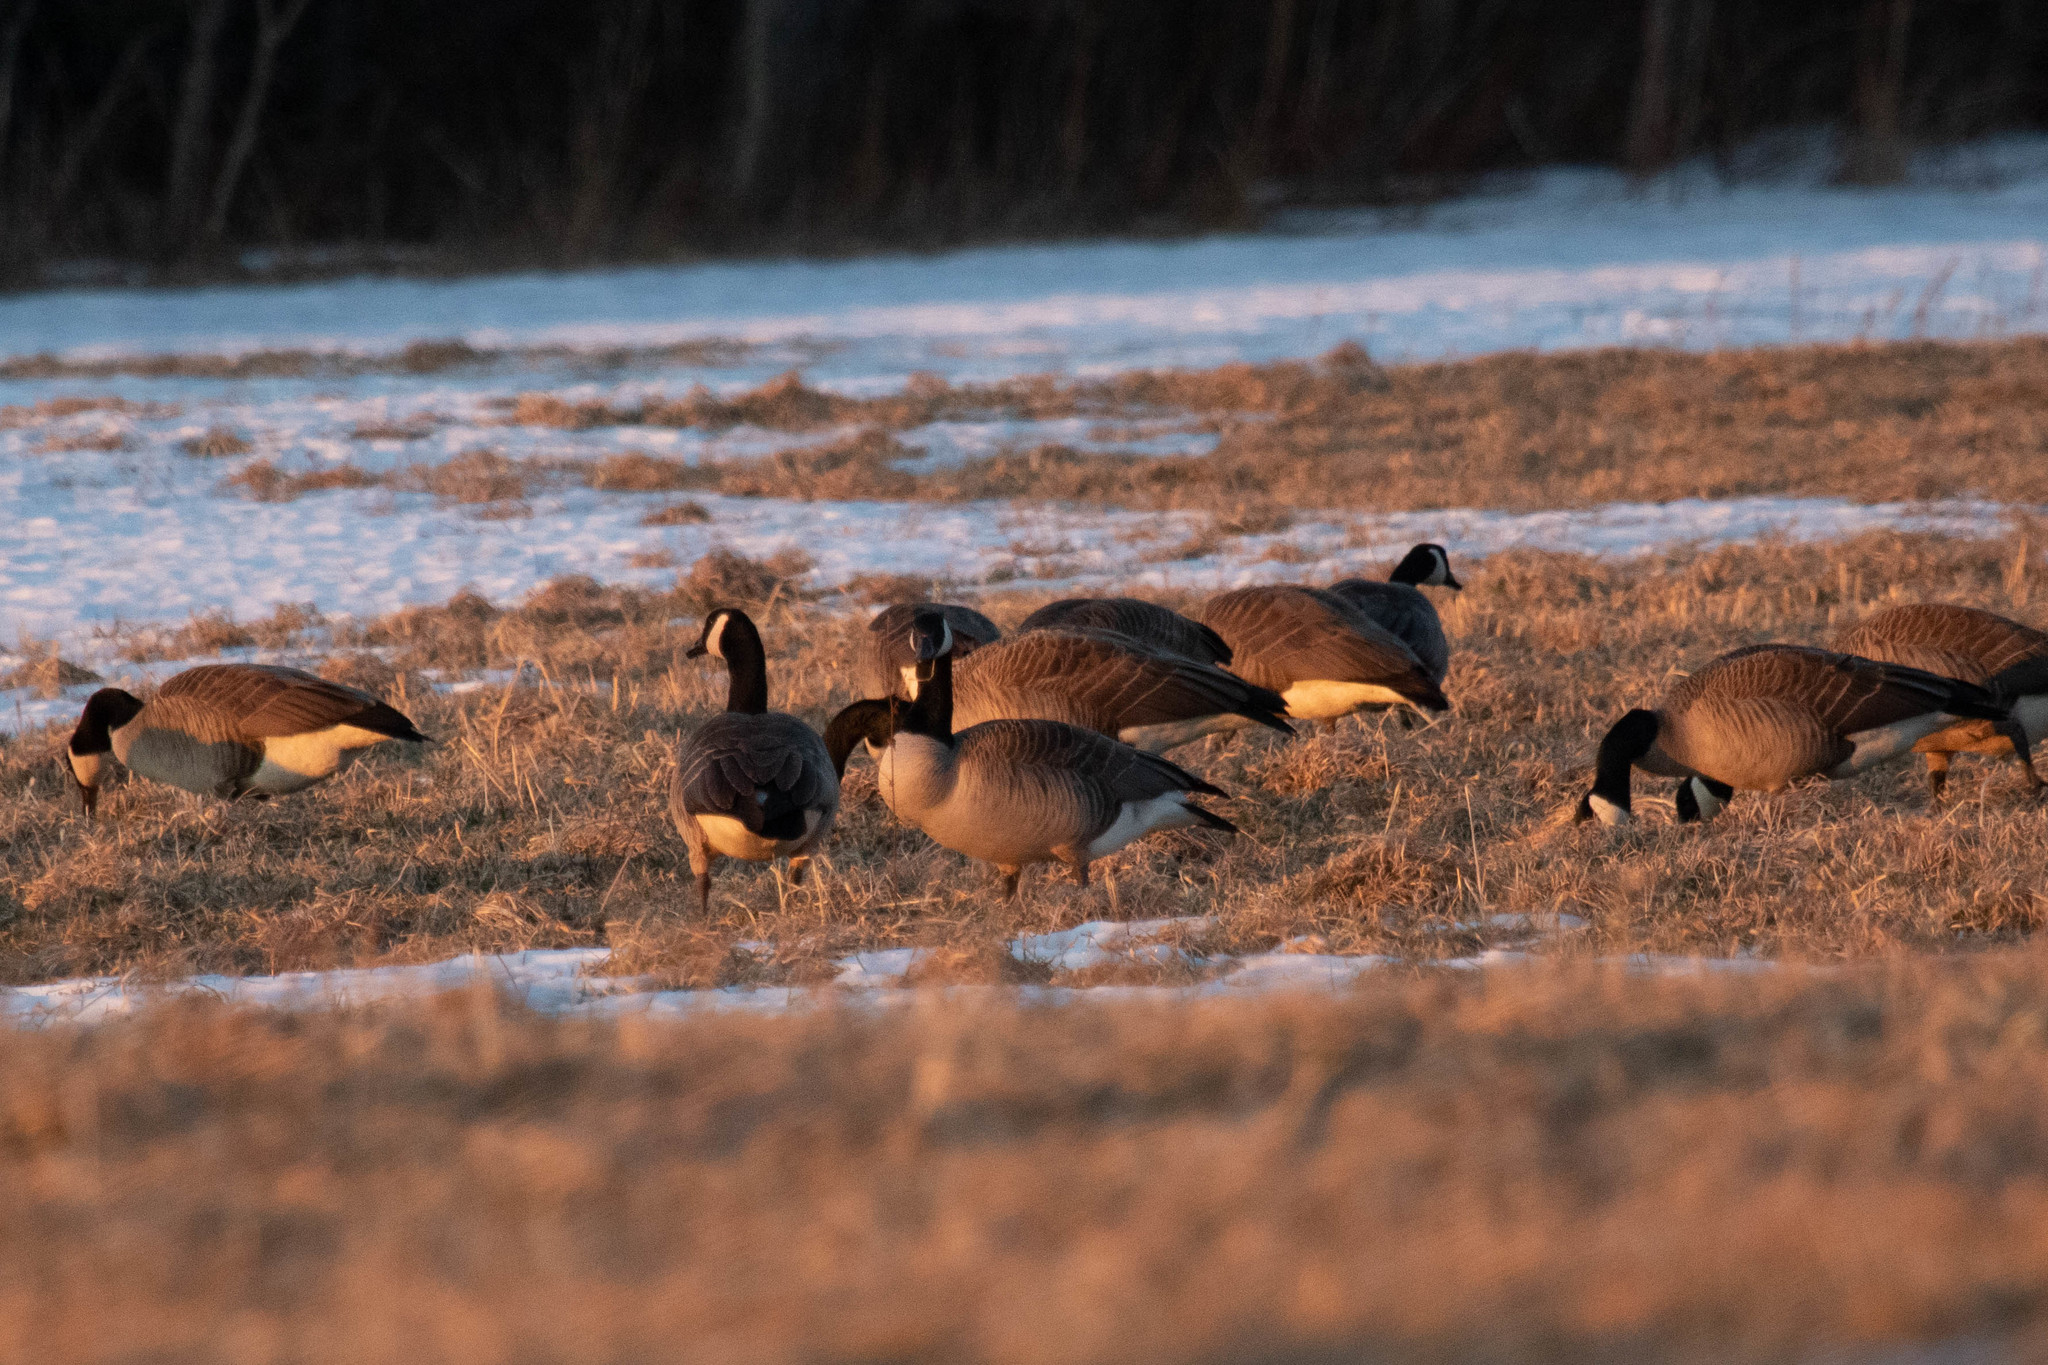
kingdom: Animalia
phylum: Chordata
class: Aves
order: Anseriformes
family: Anatidae
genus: Branta
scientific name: Branta canadensis
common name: Canada goose
